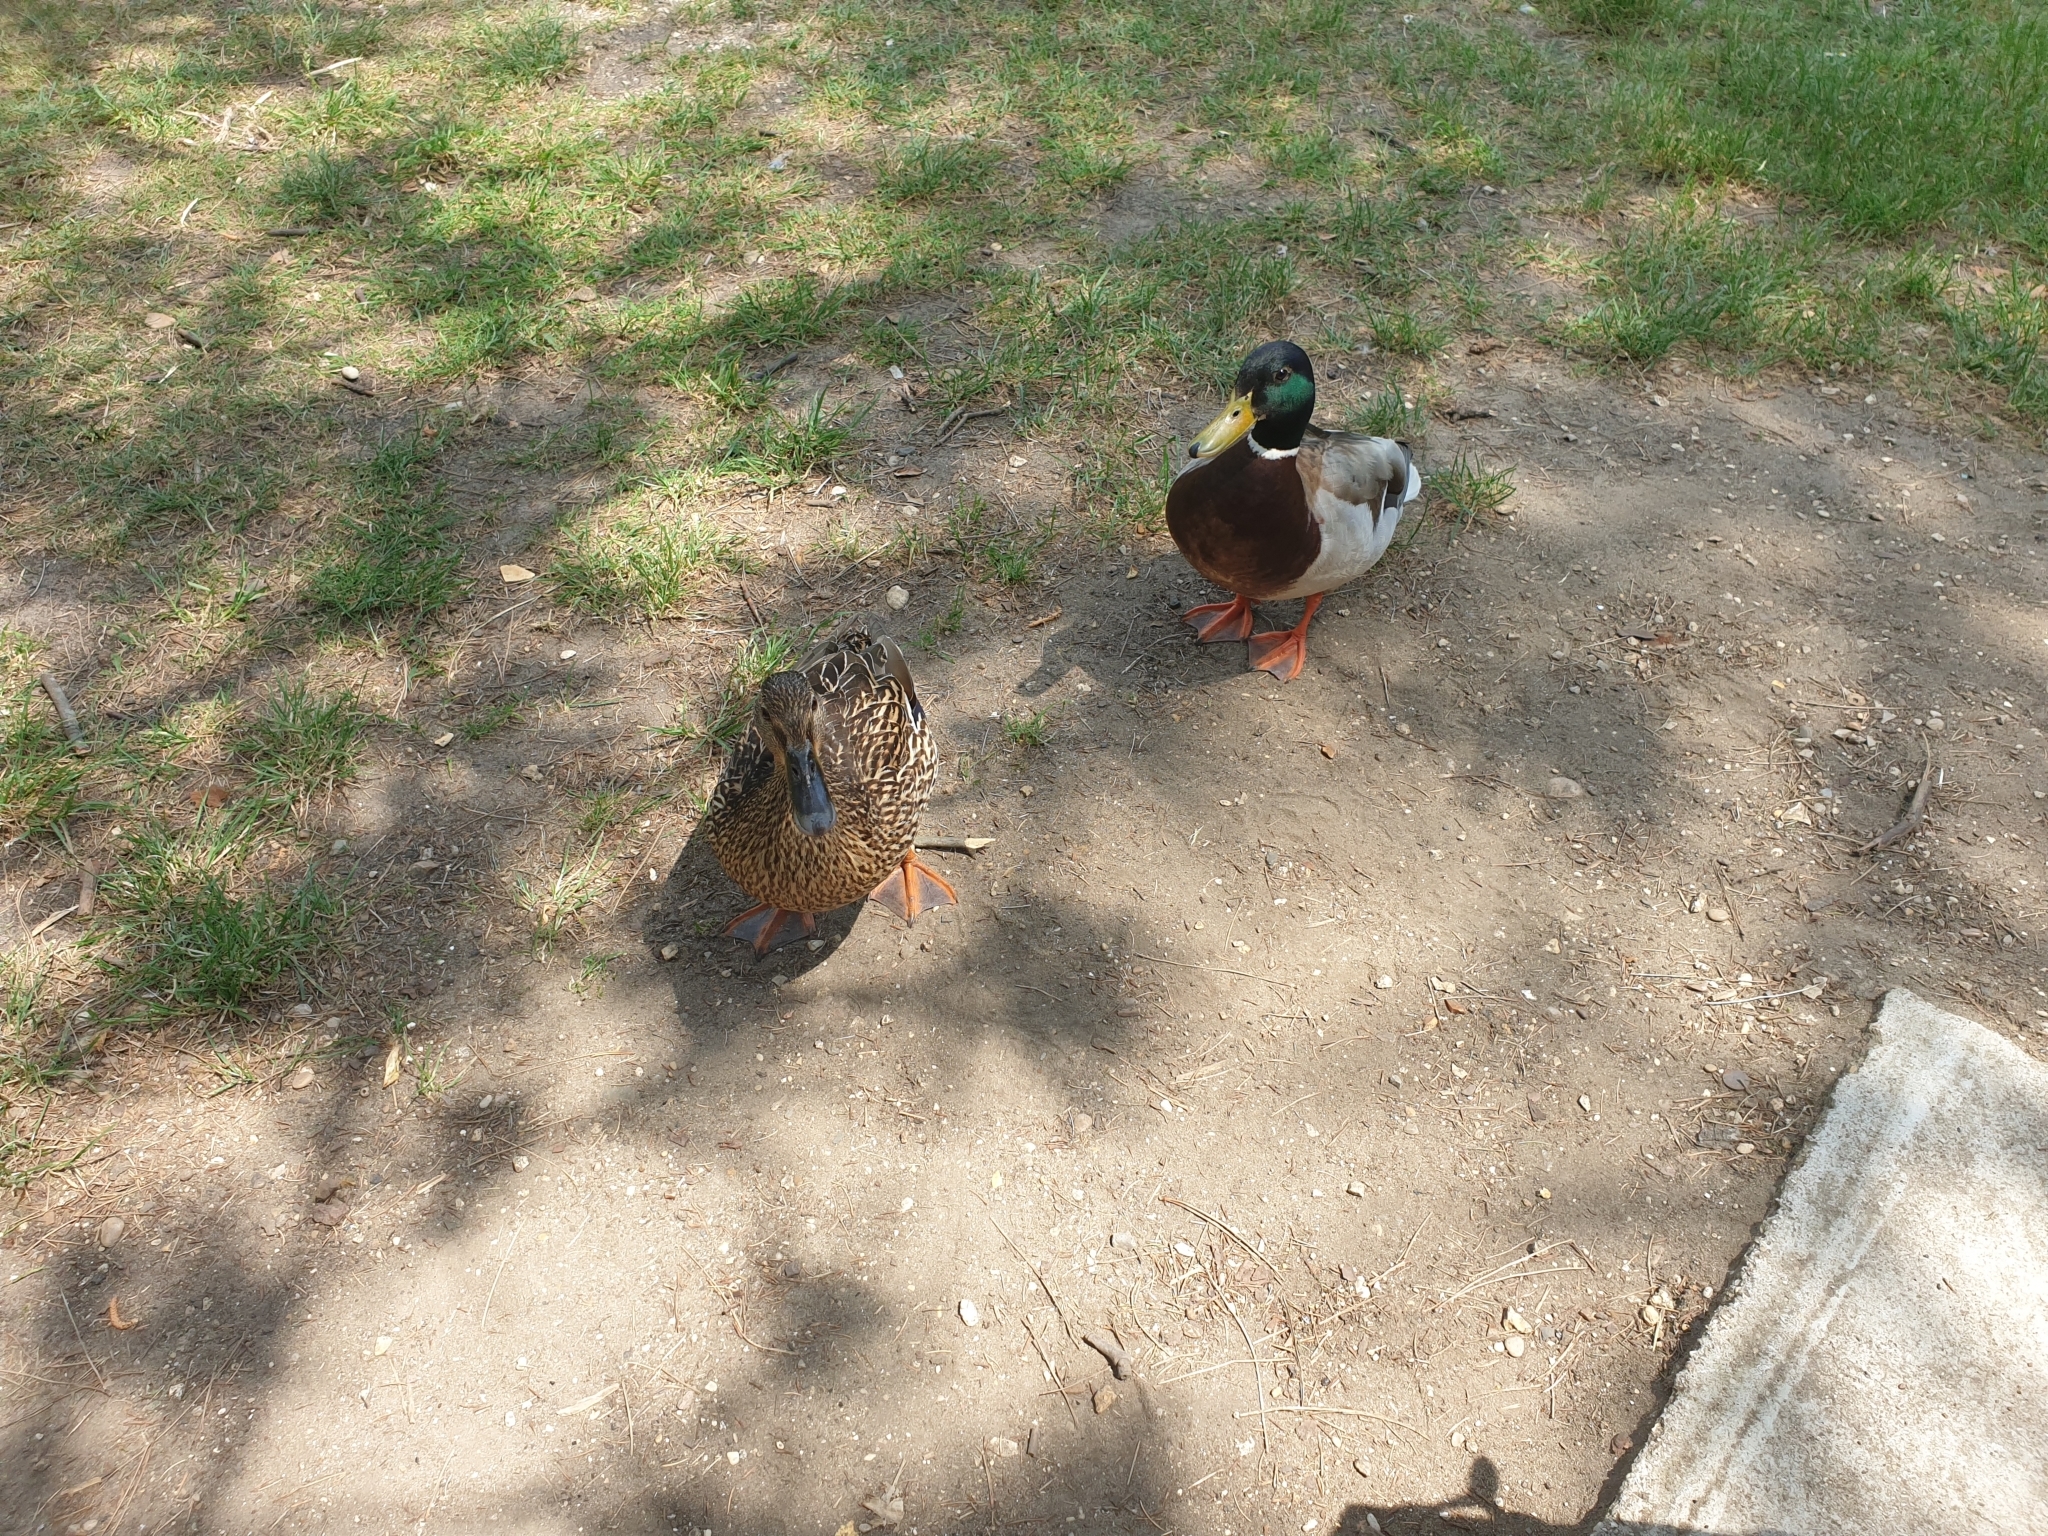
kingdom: Animalia
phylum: Chordata
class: Aves
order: Anseriformes
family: Anatidae
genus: Anas
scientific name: Anas platyrhynchos
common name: Mallard
